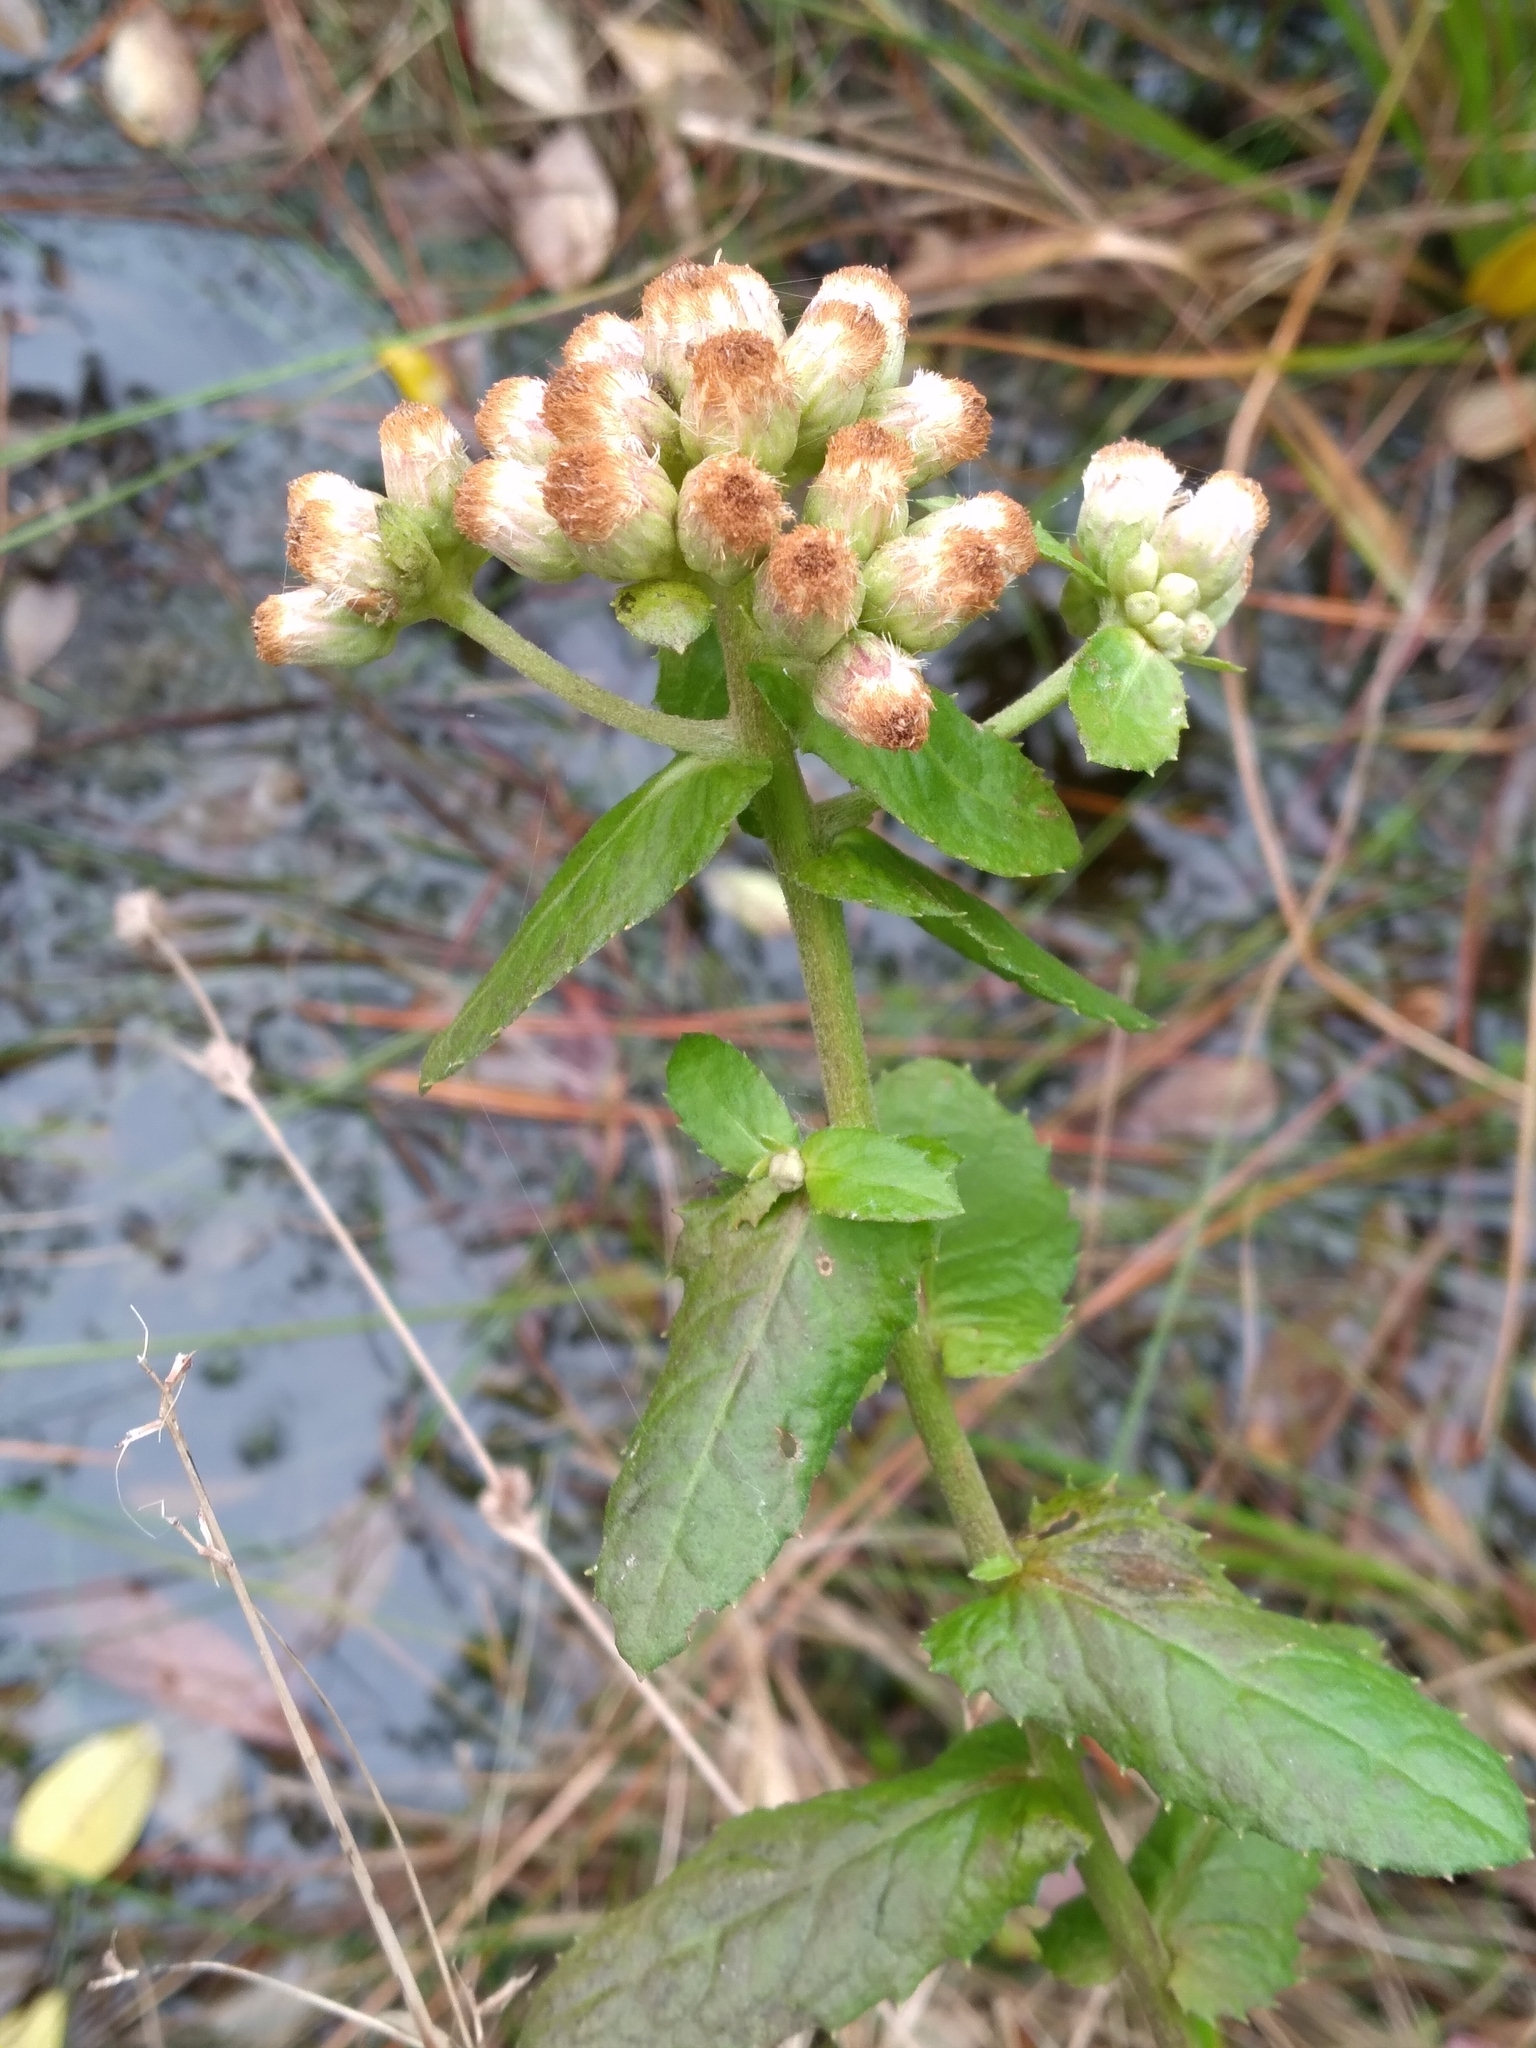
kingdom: Plantae
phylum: Tracheophyta
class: Magnoliopsida
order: Asterales
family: Asteraceae
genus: Pluchea
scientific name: Pluchea foetida
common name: Stinking camphorweed
